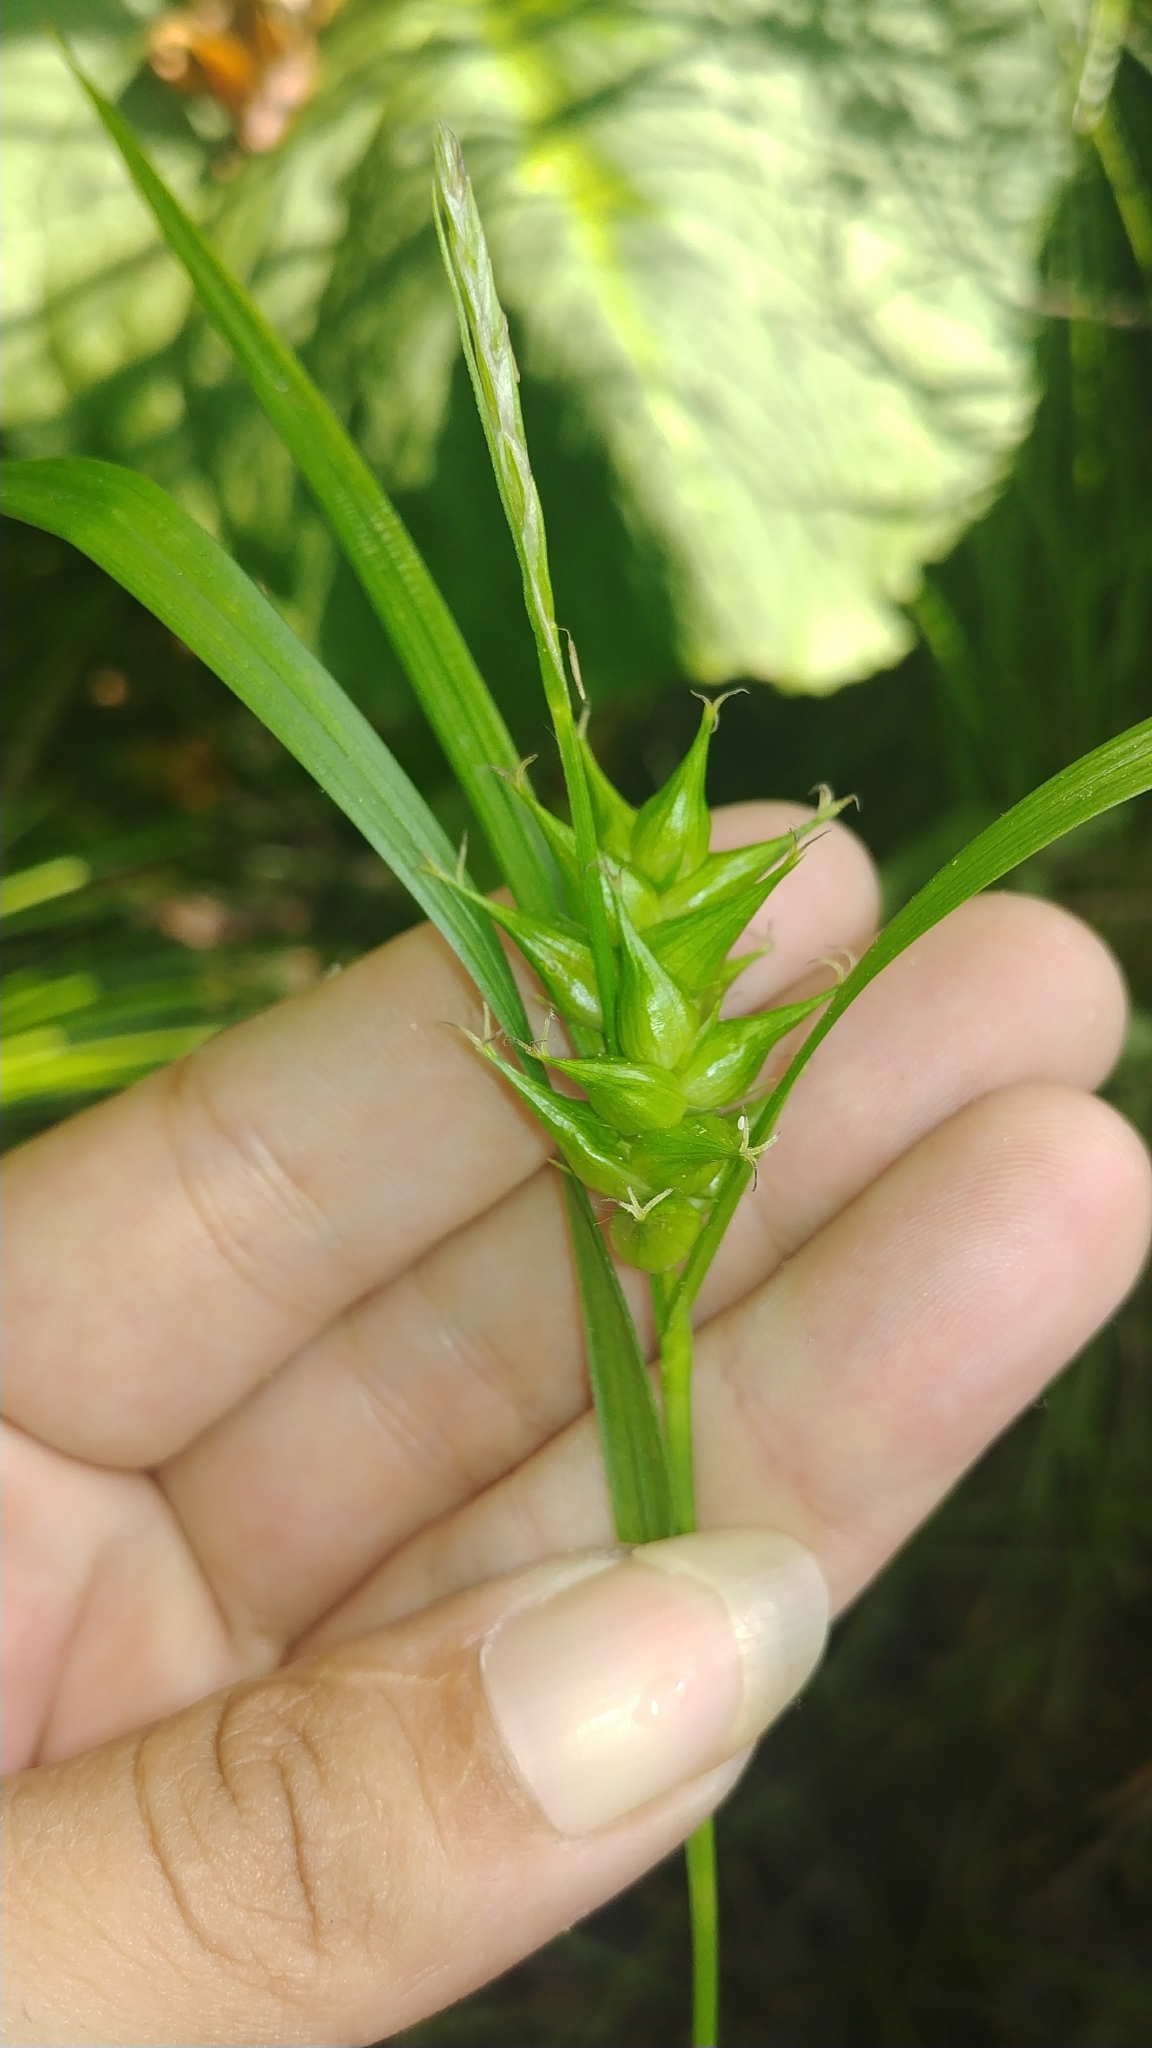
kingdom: Plantae
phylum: Tracheophyta
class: Liliopsida
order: Poales
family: Cyperaceae
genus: Carex
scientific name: Carex intumescens
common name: Greater bladder sedge
